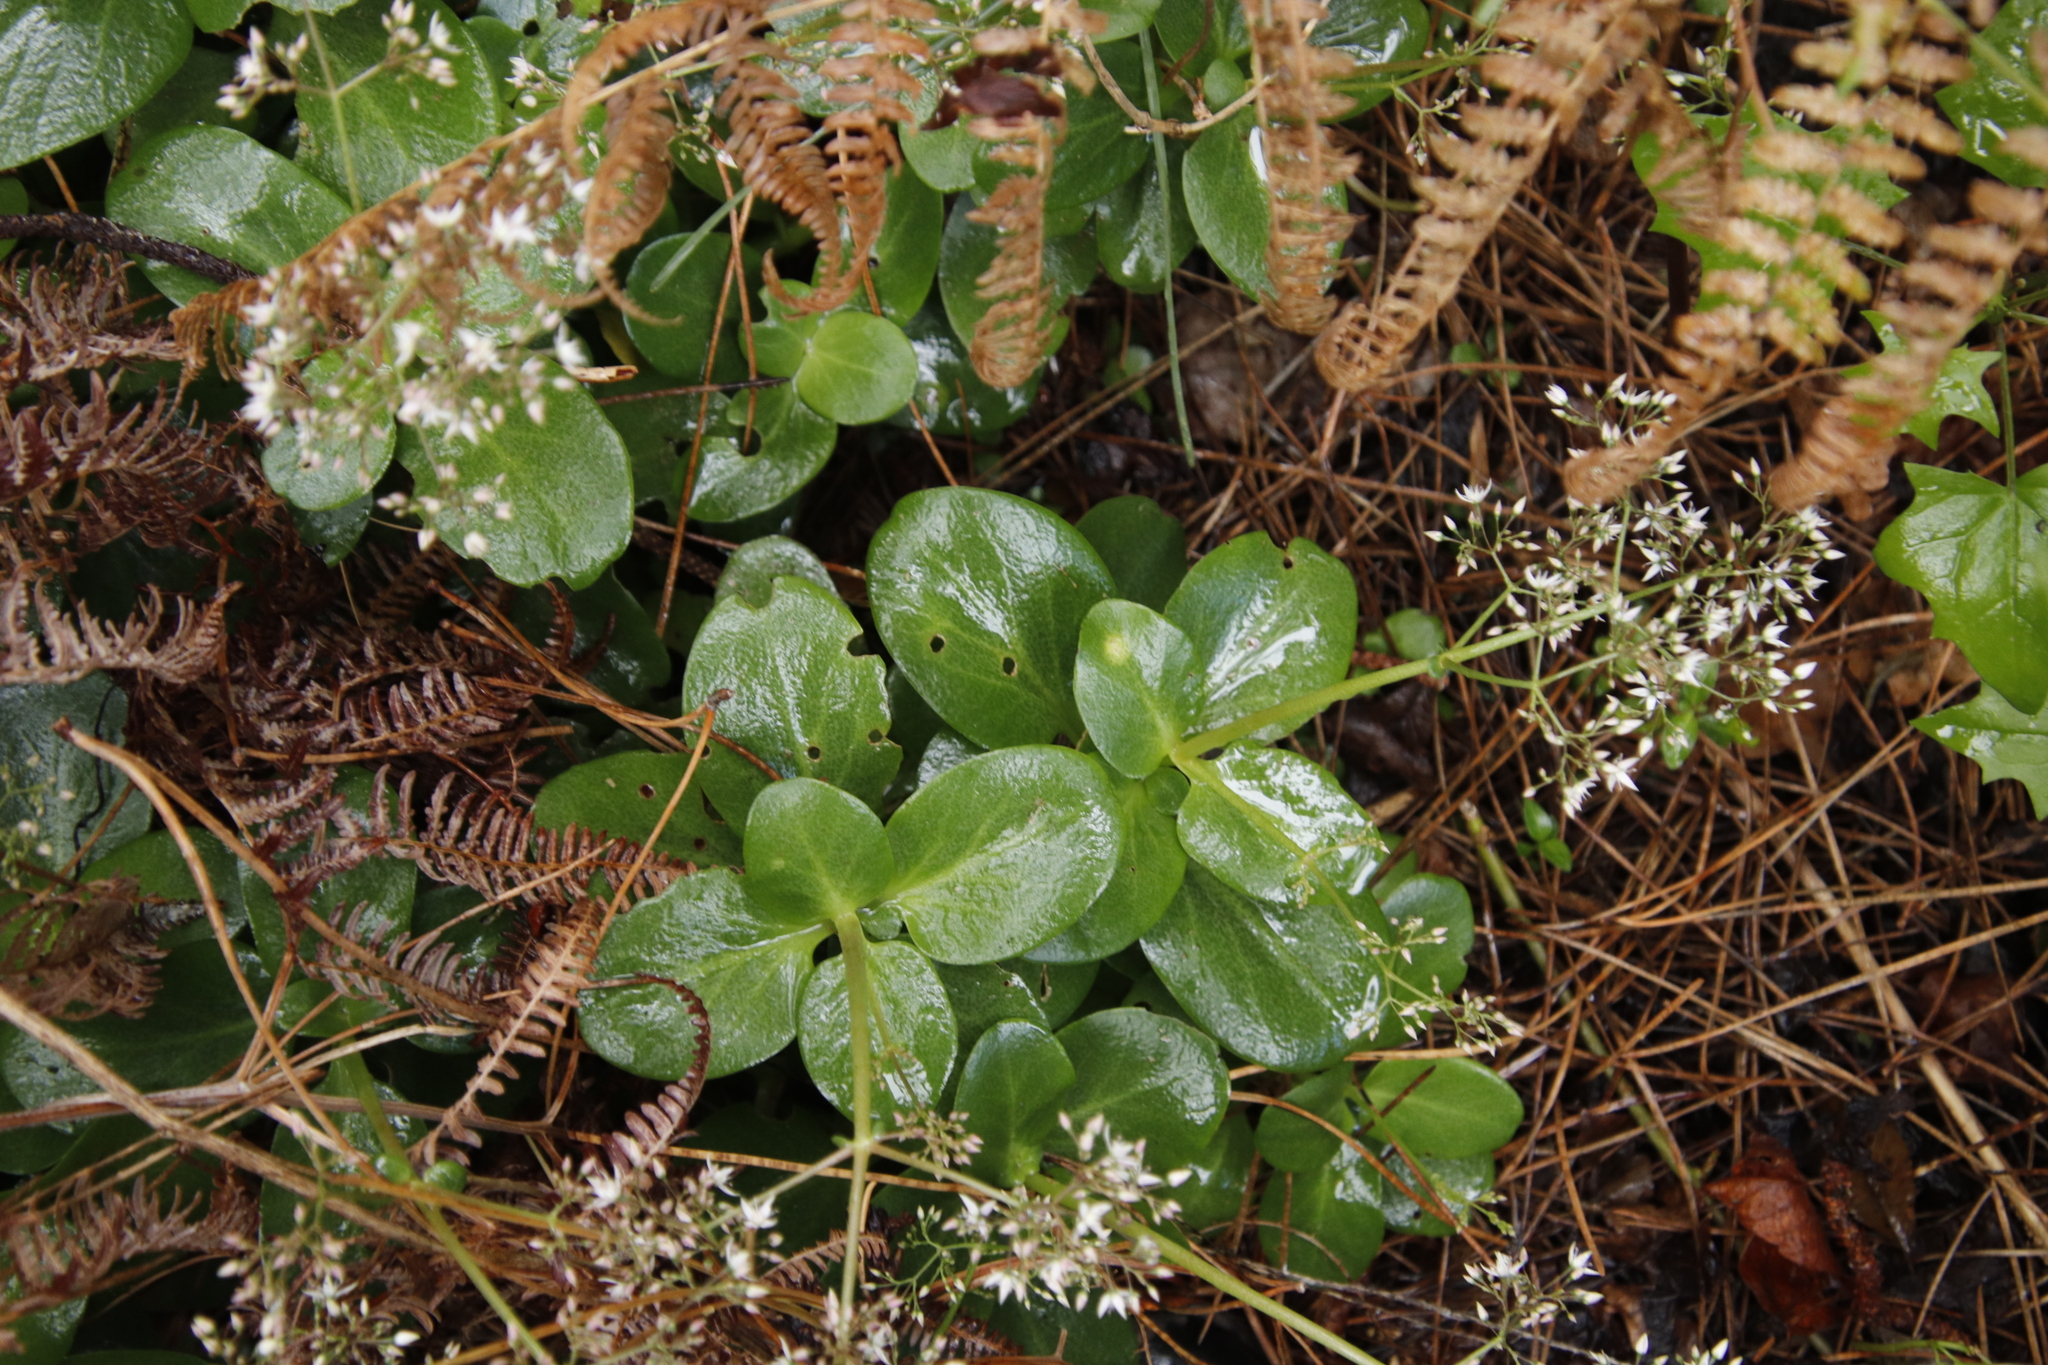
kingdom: Plantae
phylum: Tracheophyta
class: Magnoliopsida
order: Saxifragales
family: Crassulaceae
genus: Crassula
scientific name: Crassula multicava
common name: Cape province pygmyweed
